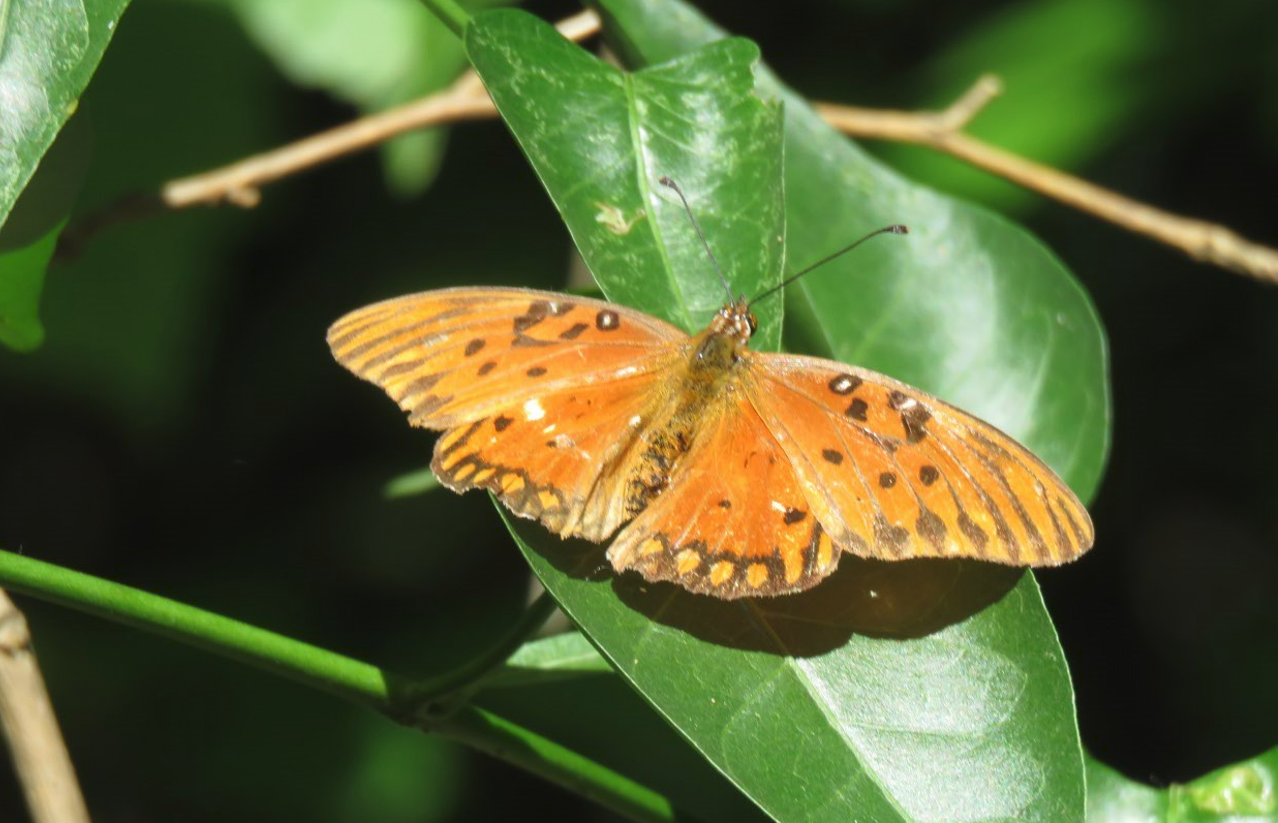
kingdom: Animalia
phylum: Arthropoda
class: Insecta
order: Lepidoptera
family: Nymphalidae
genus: Dione
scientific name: Dione vanillae
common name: Gulf fritillary
